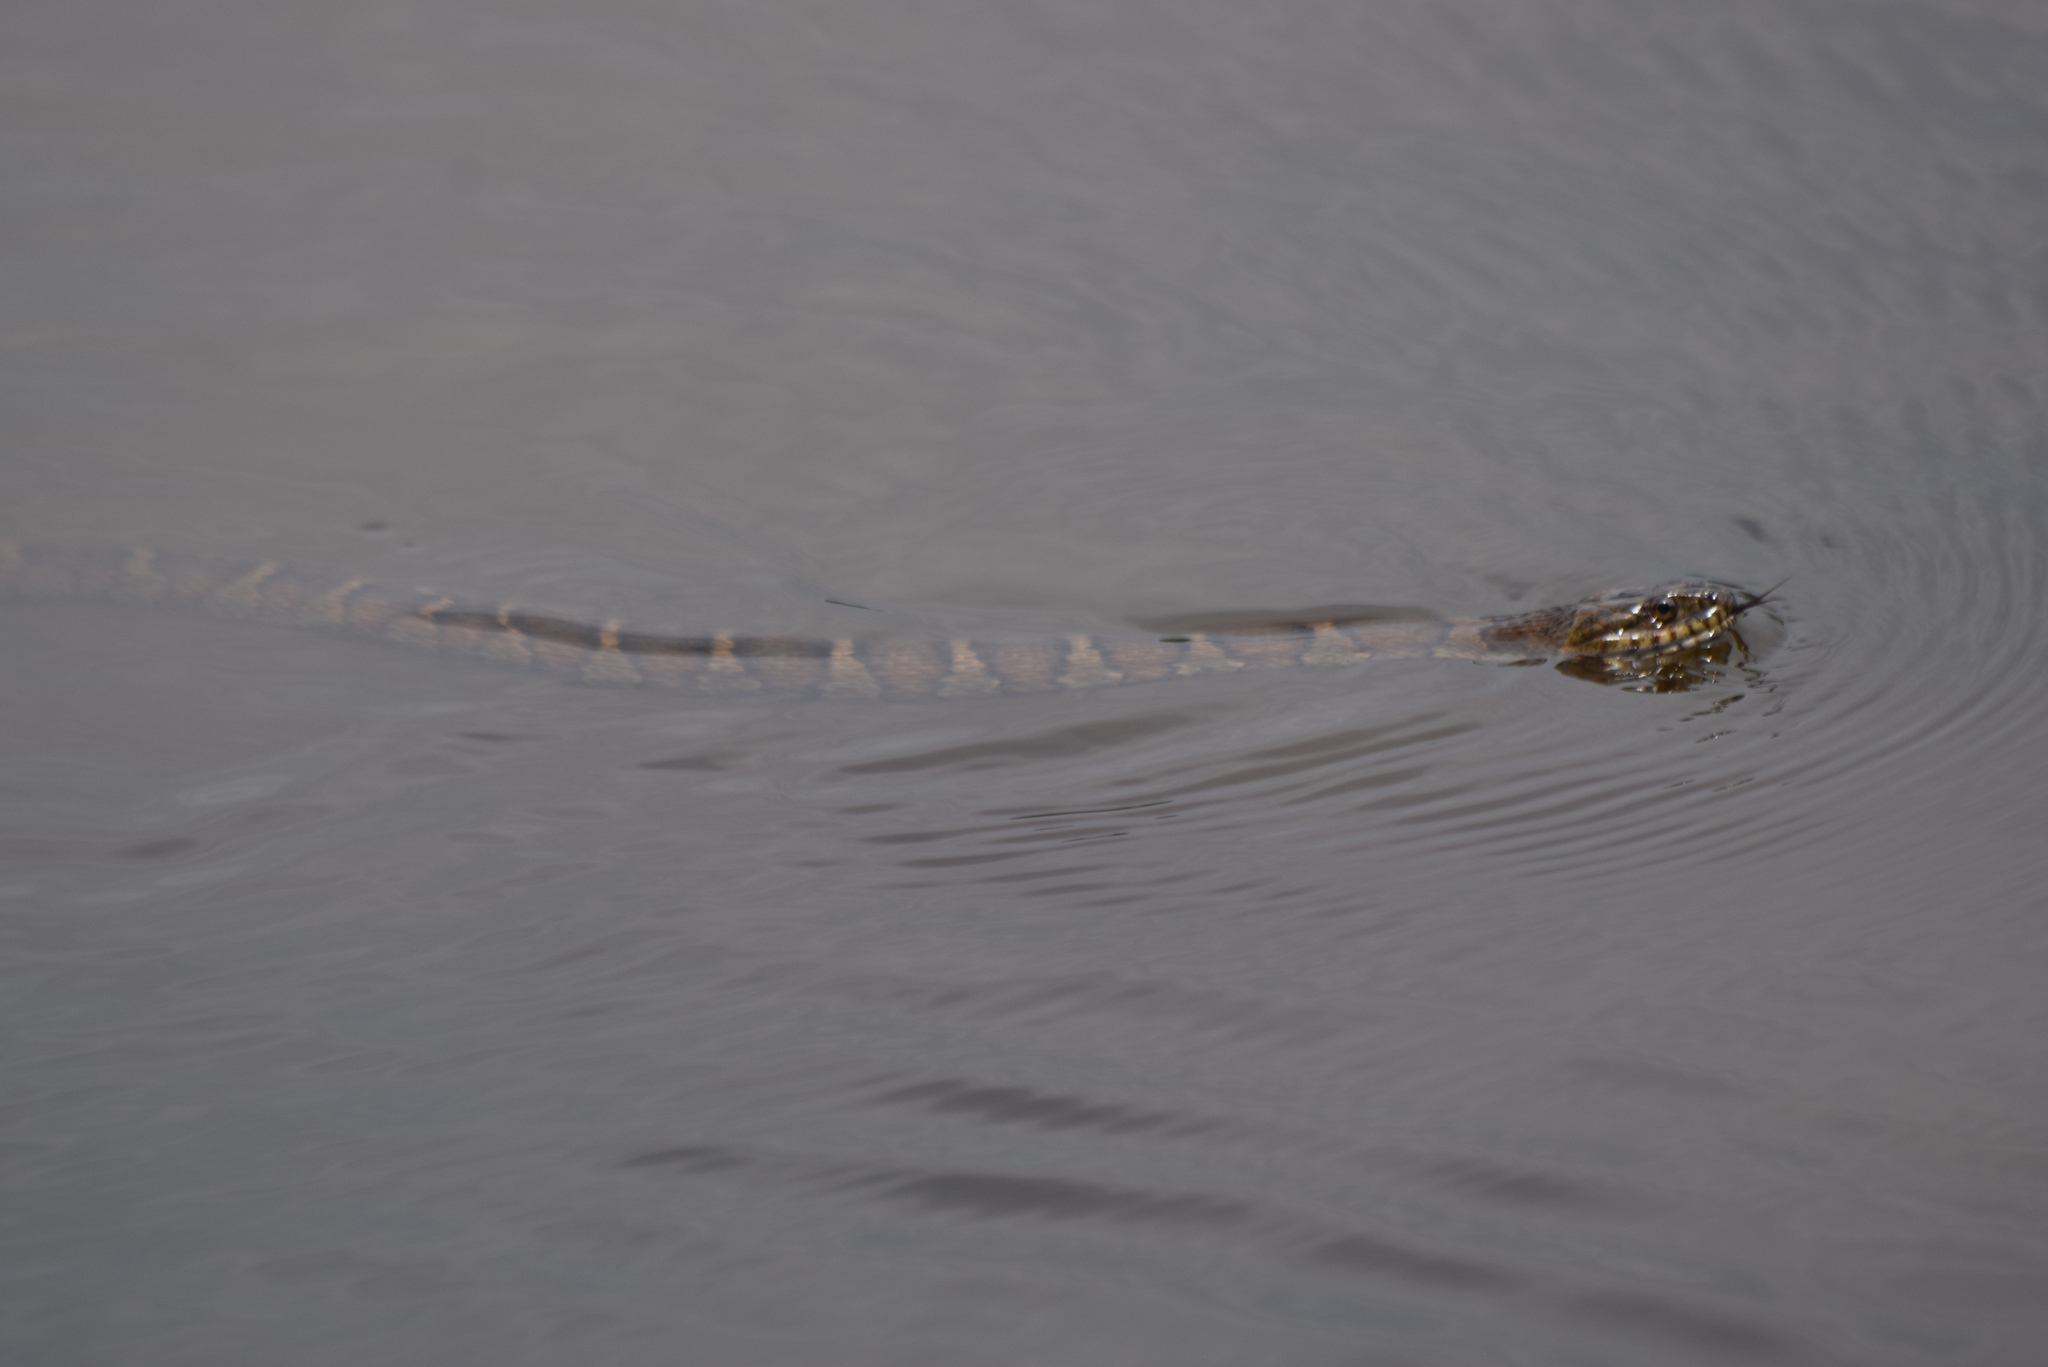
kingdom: Animalia
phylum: Chordata
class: Squamata
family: Colubridae
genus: Nerodia
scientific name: Nerodia sipedon
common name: Northern water snake
